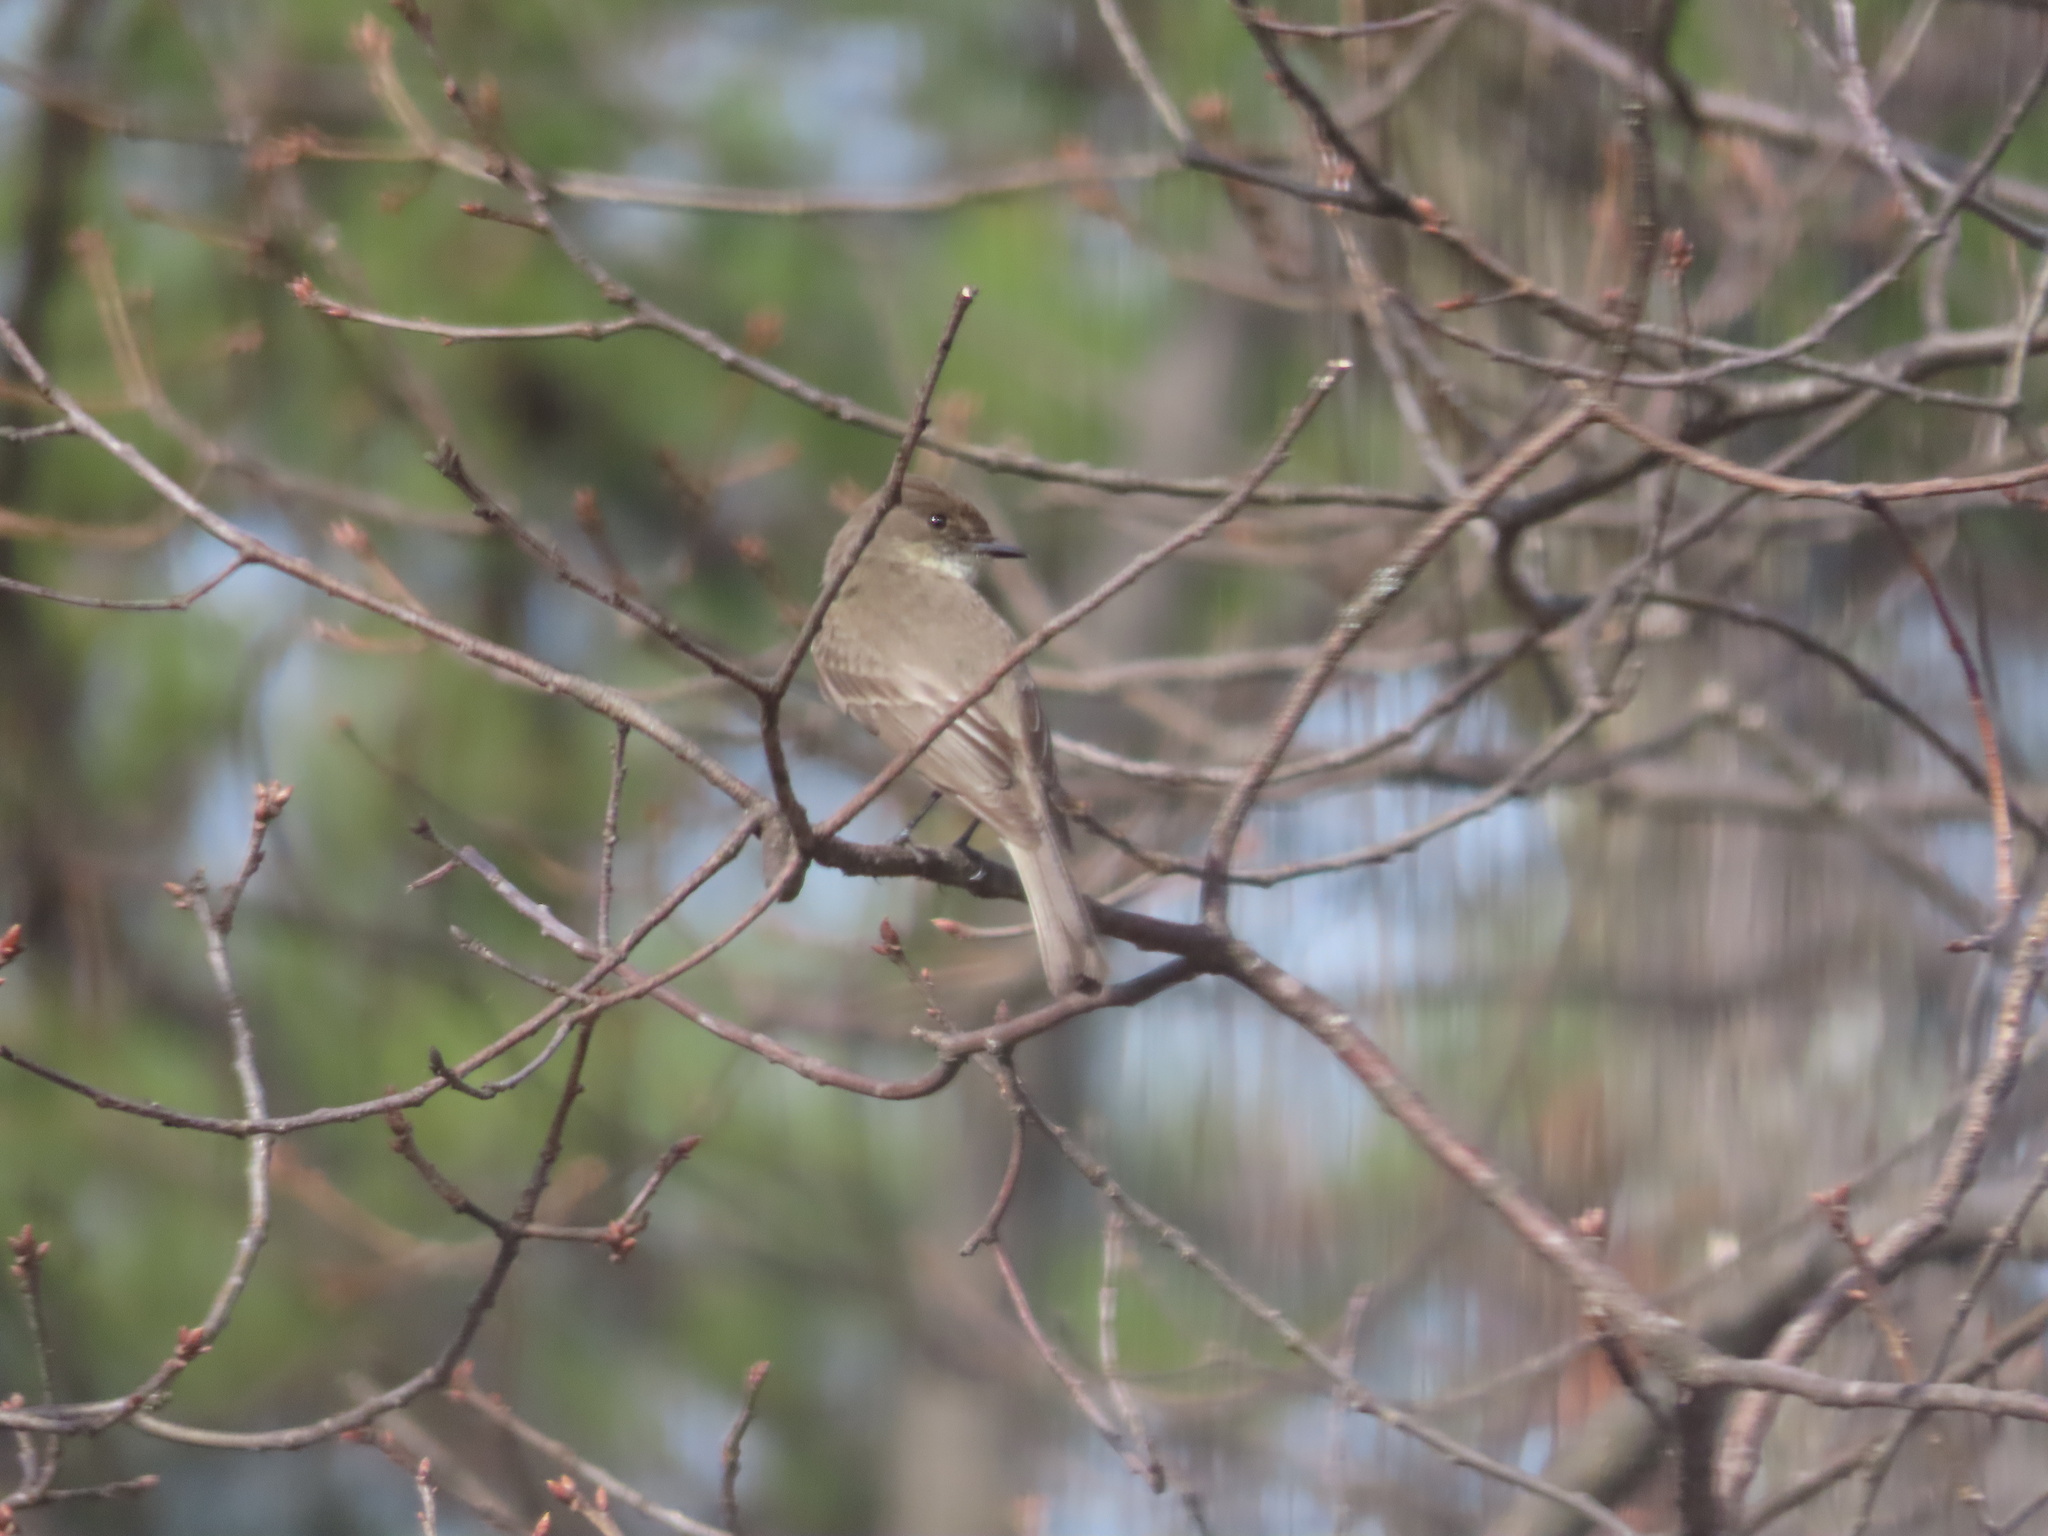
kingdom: Animalia
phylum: Chordata
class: Aves
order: Passeriformes
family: Tyrannidae
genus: Sayornis
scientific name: Sayornis phoebe
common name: Eastern phoebe
